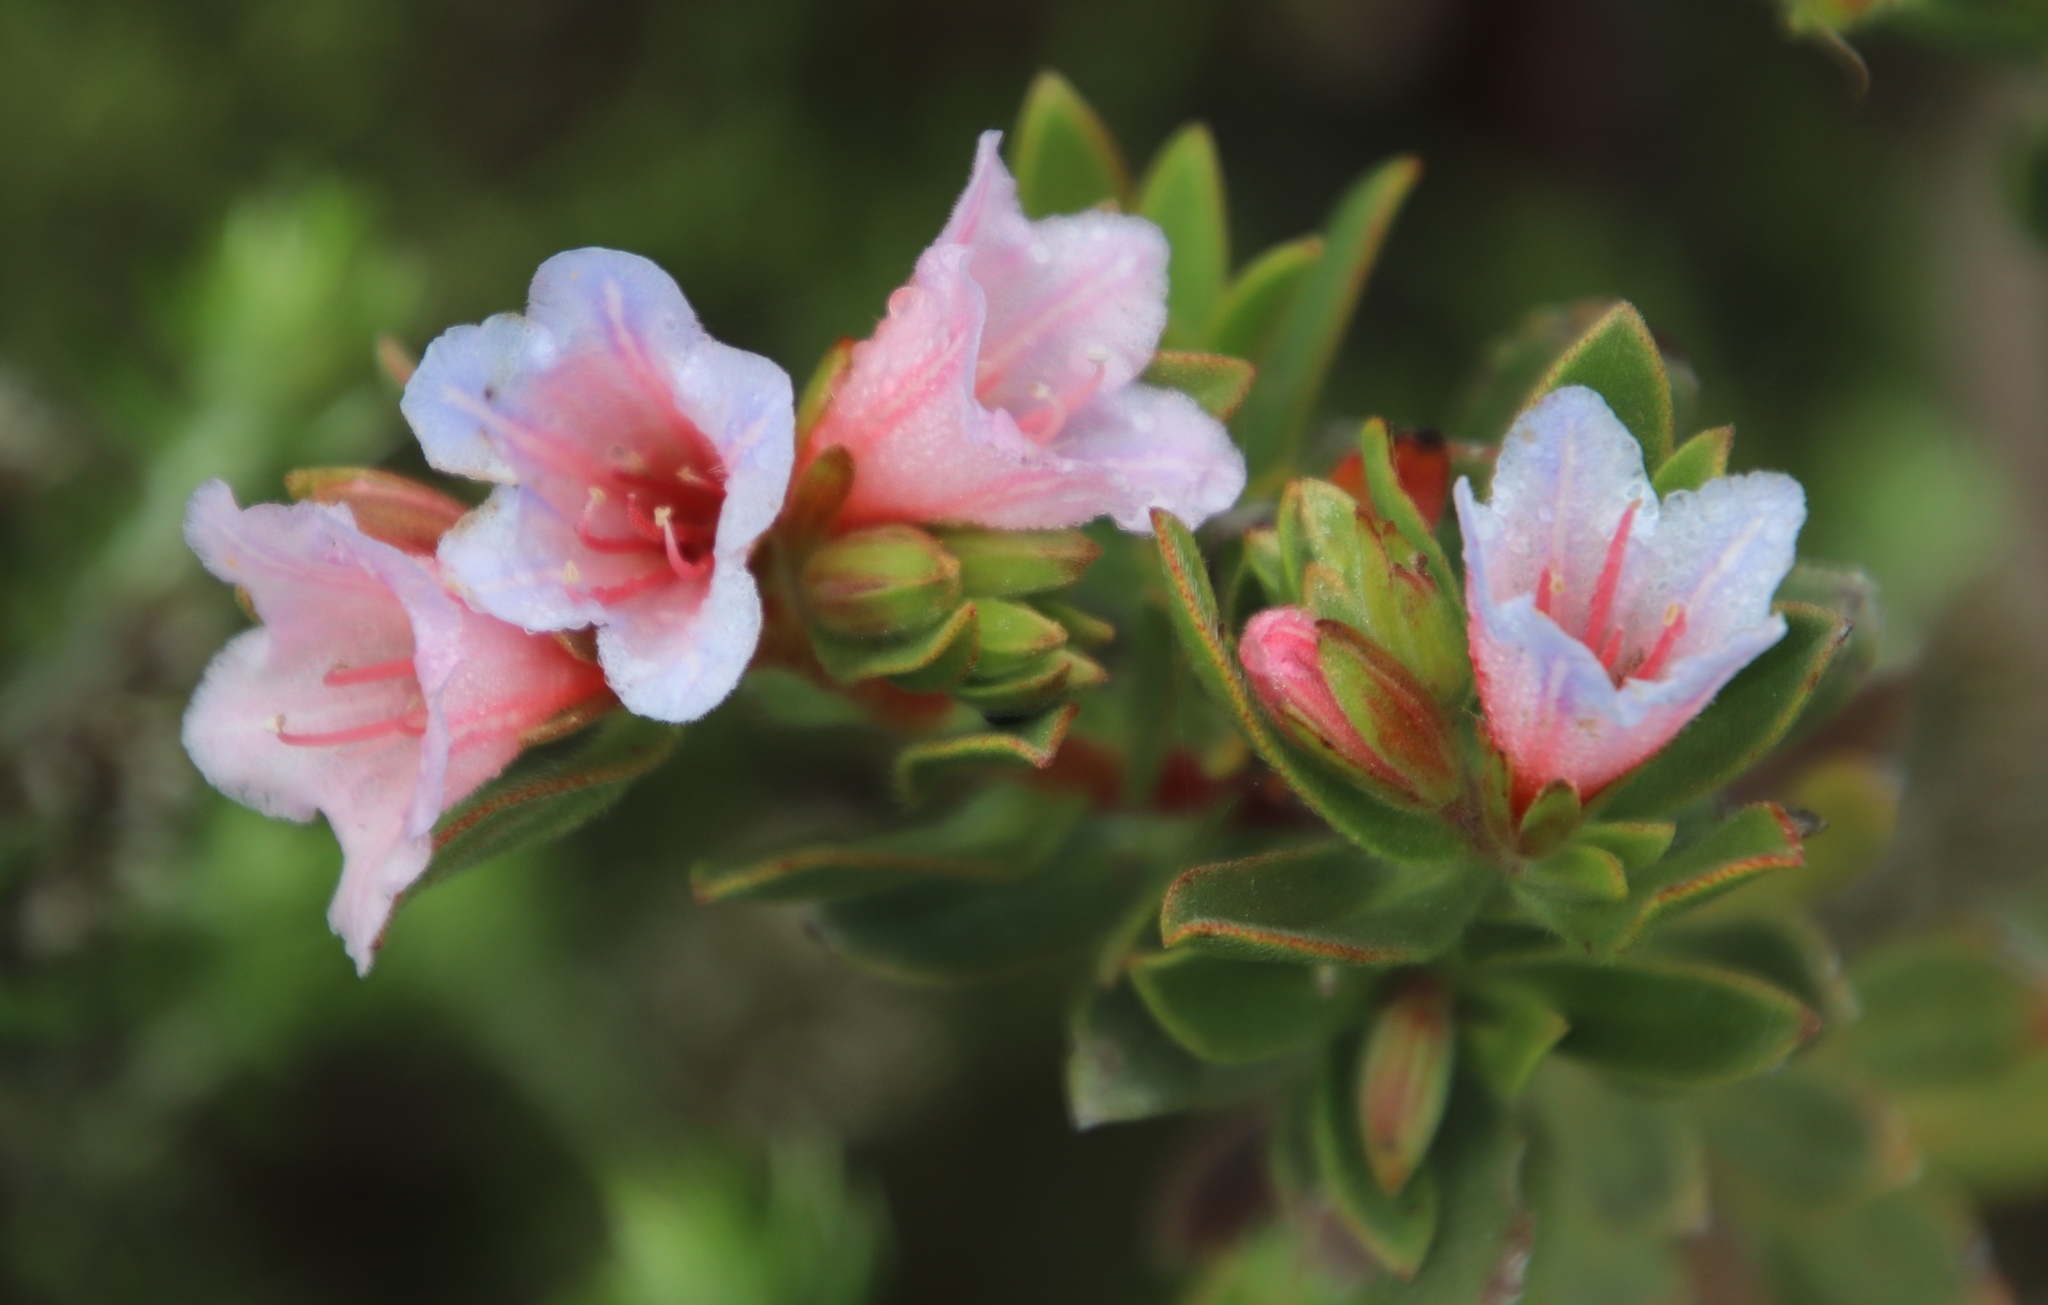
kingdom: Plantae
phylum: Tracheophyta
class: Magnoliopsida
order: Boraginales
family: Boraginaceae
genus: Lobostemon
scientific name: Lobostemon fruticosus
